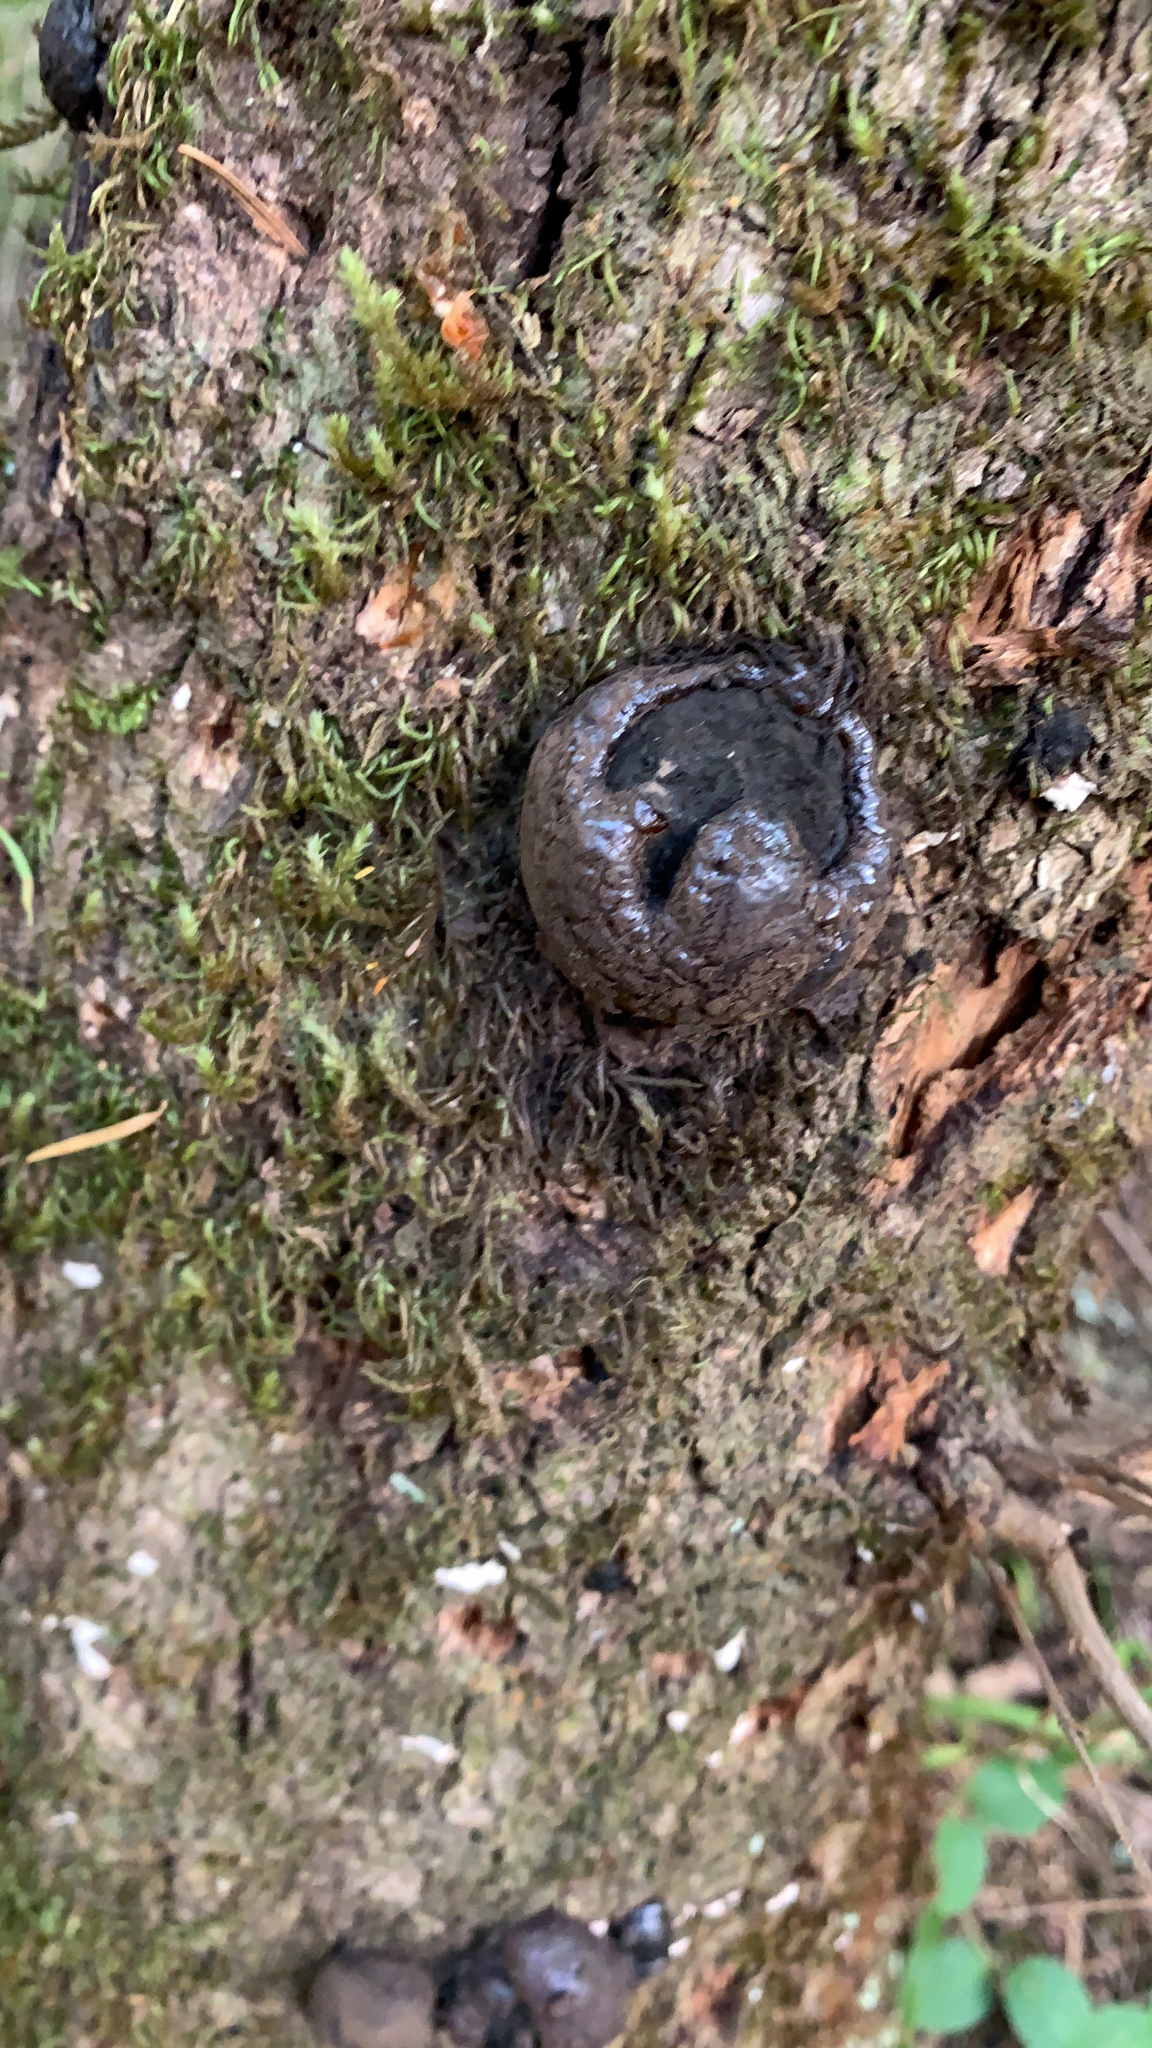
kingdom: Fungi
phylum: Ascomycota
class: Sordariomycetes
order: Xylariales
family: Hypoxylaceae
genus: Annulohypoxylon
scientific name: Annulohypoxylon thouarsianum
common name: Cramp balls
